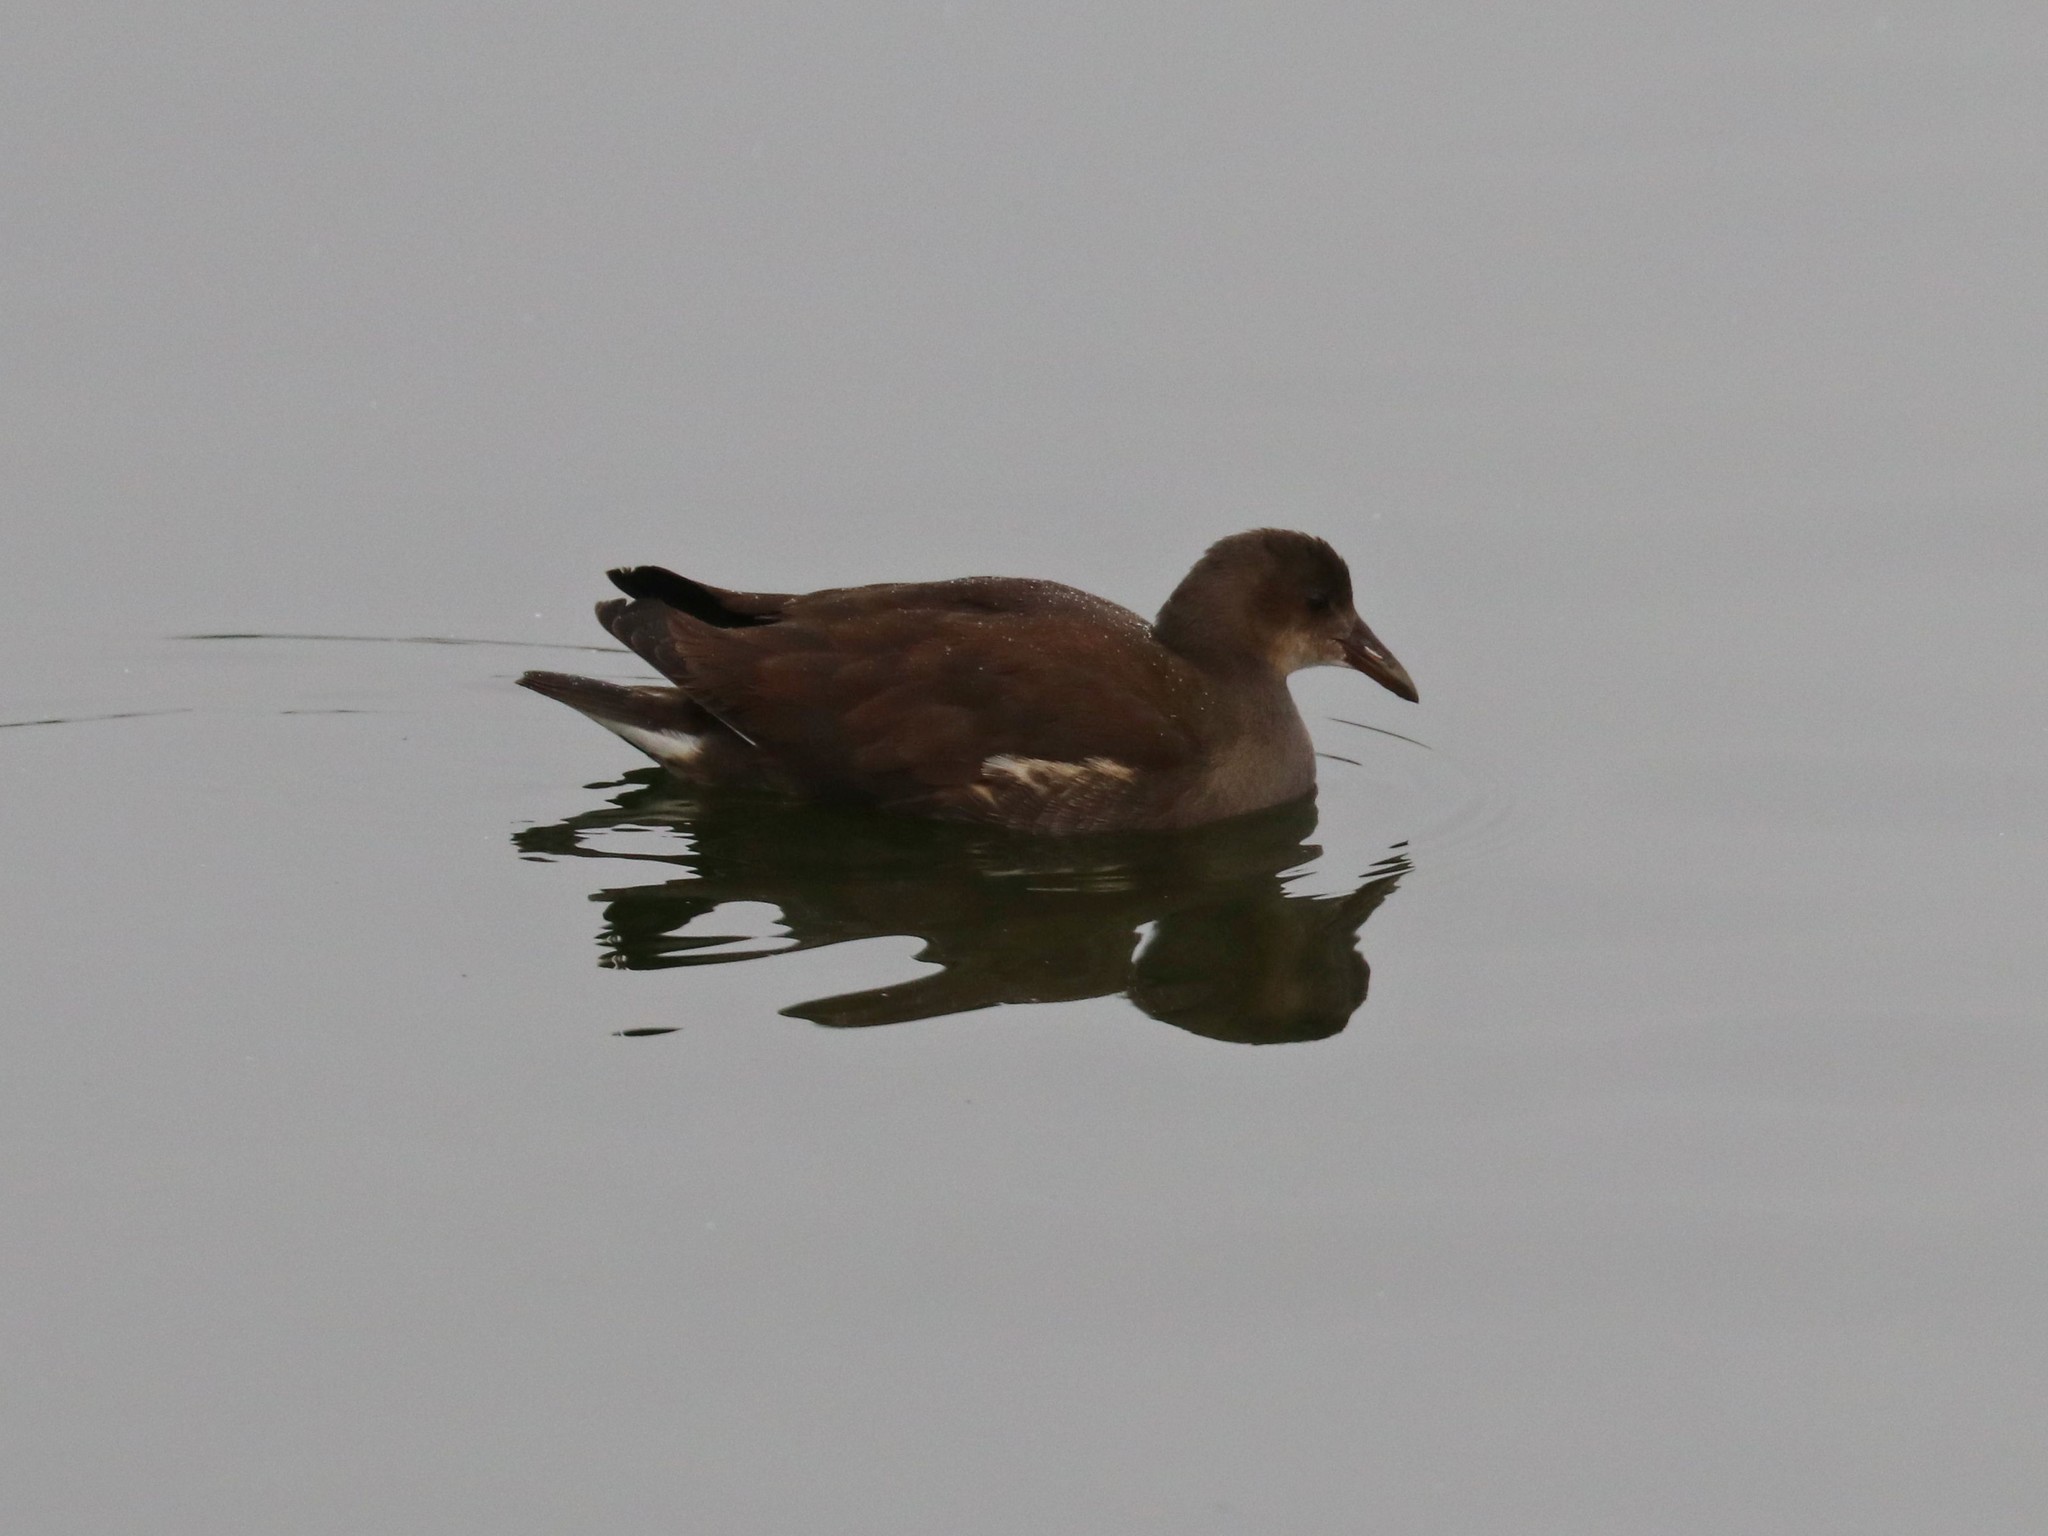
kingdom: Animalia
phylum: Chordata
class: Aves
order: Gruiformes
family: Rallidae
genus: Gallinula
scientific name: Gallinula chloropus
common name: Common moorhen
